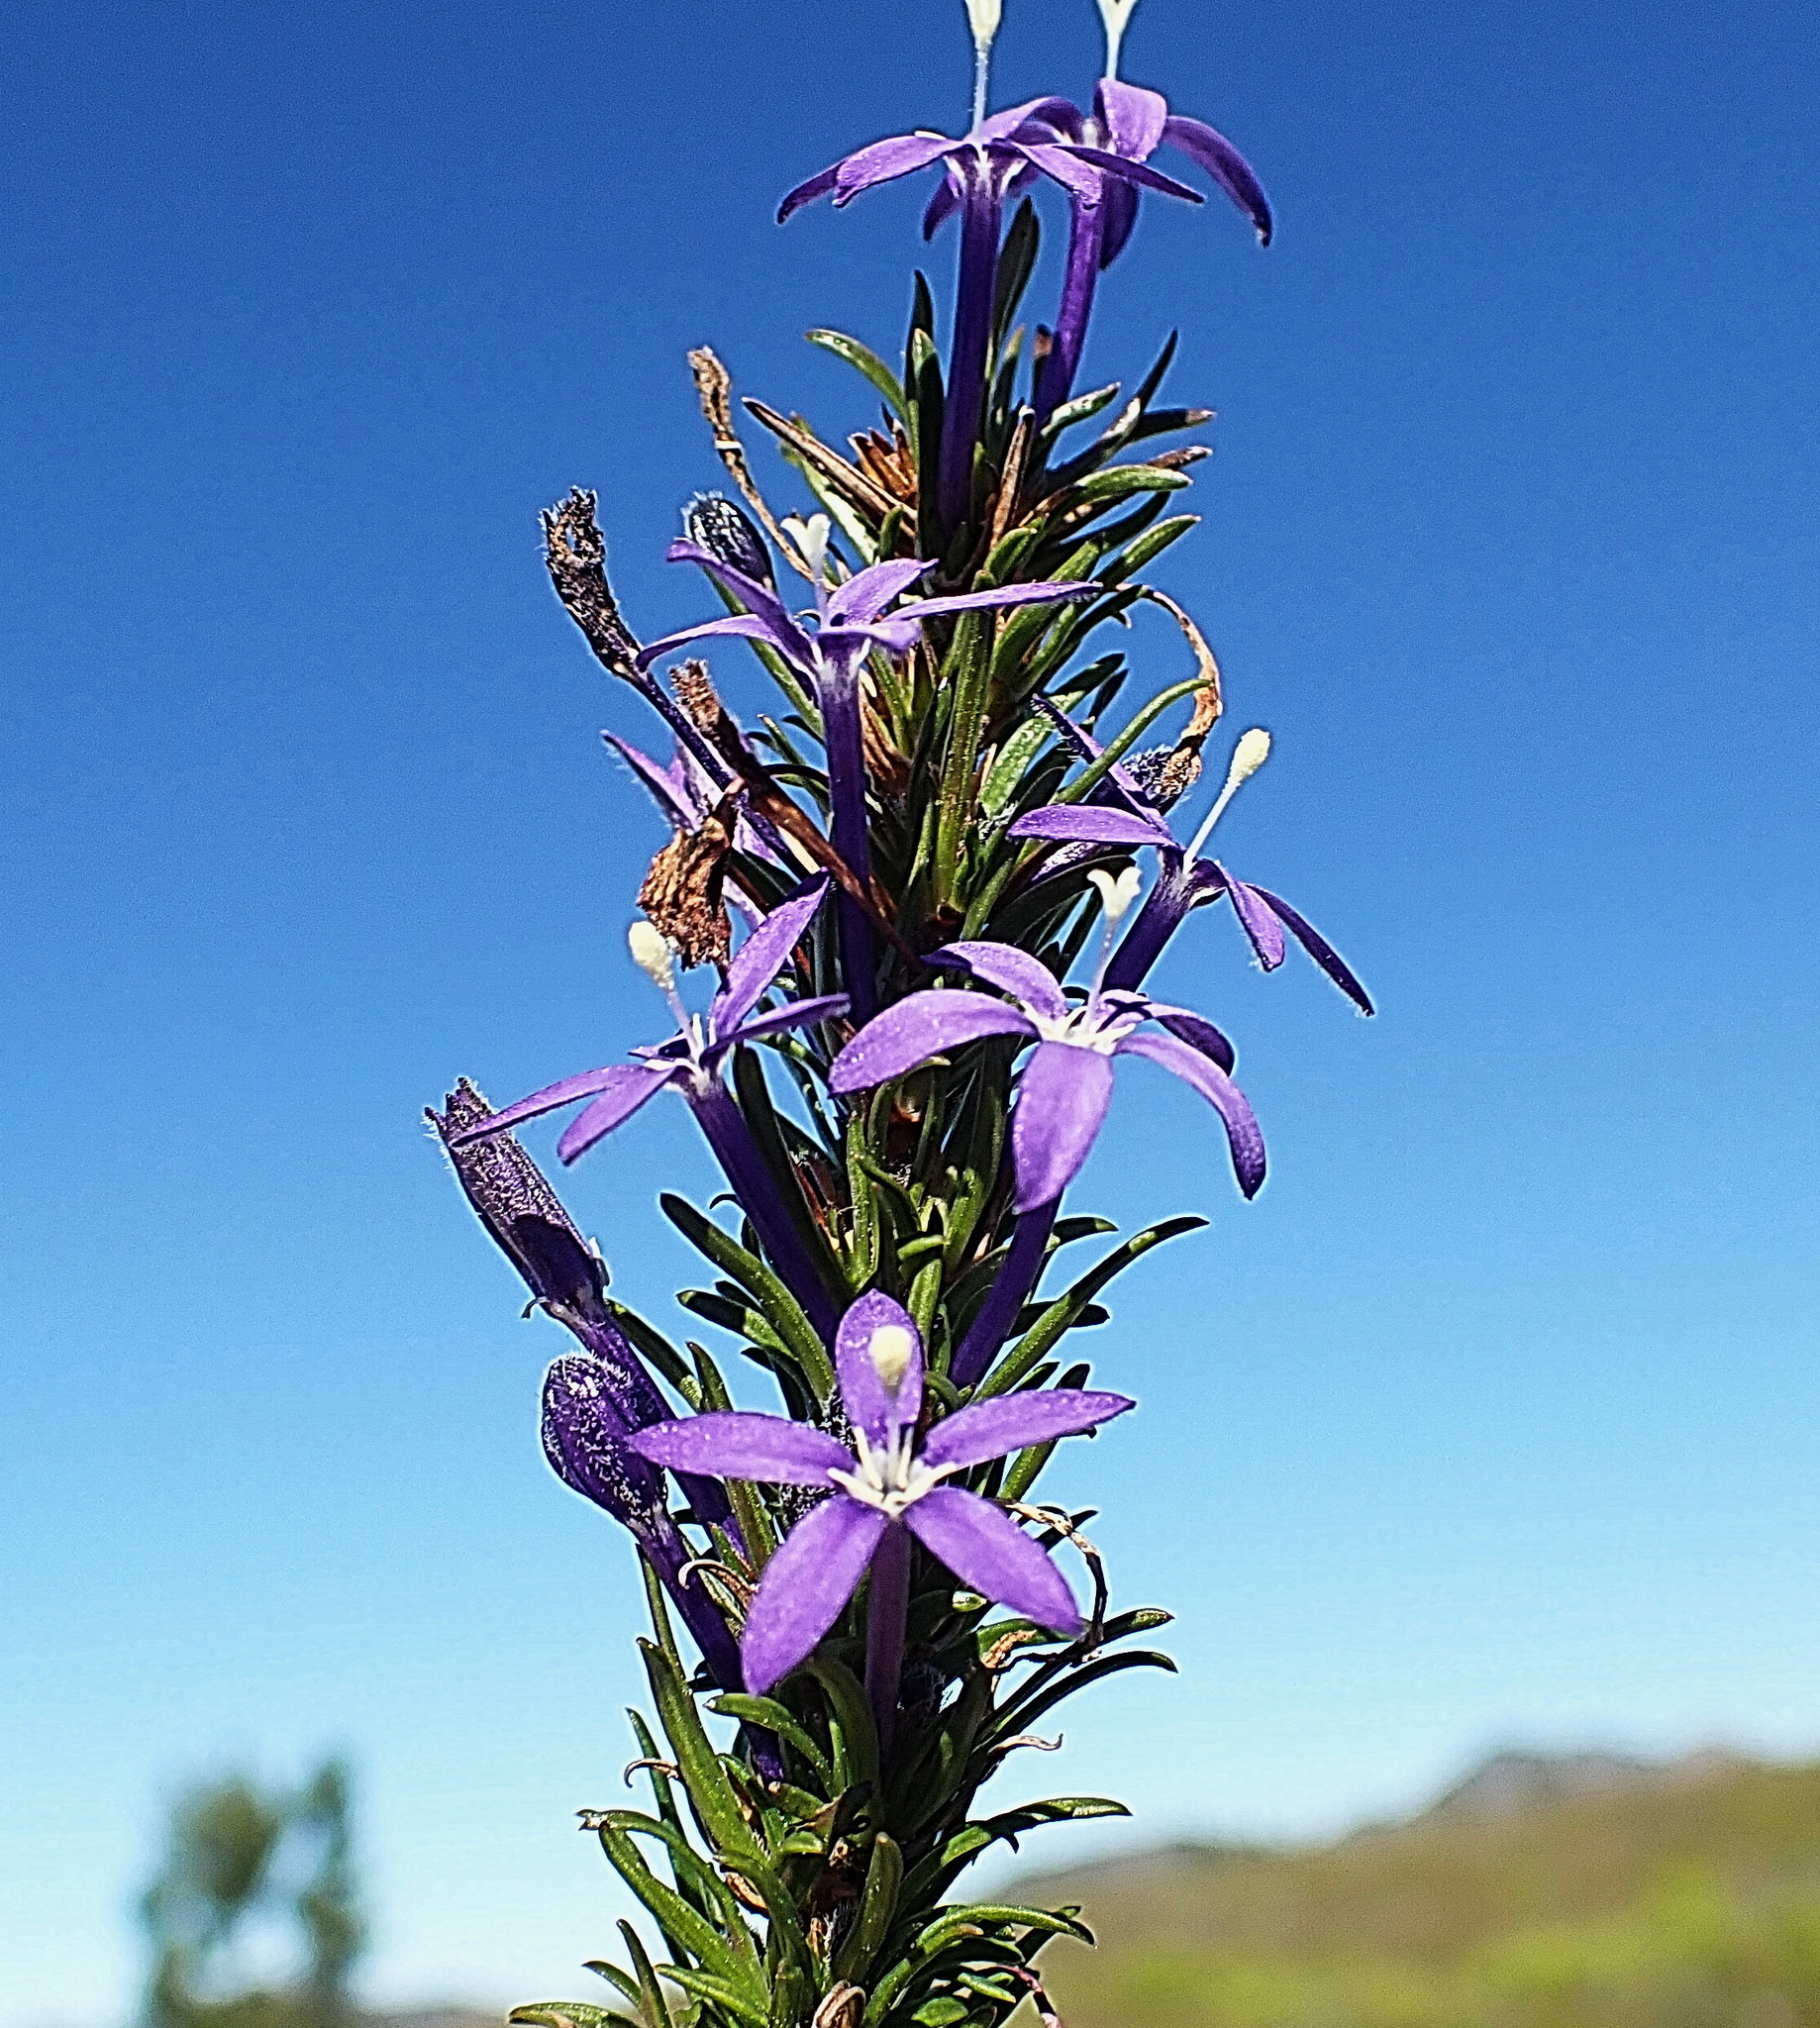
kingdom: Plantae
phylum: Tracheophyta
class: Magnoliopsida
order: Asterales
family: Campanulaceae
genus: Theilera
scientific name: Theilera guthriei
